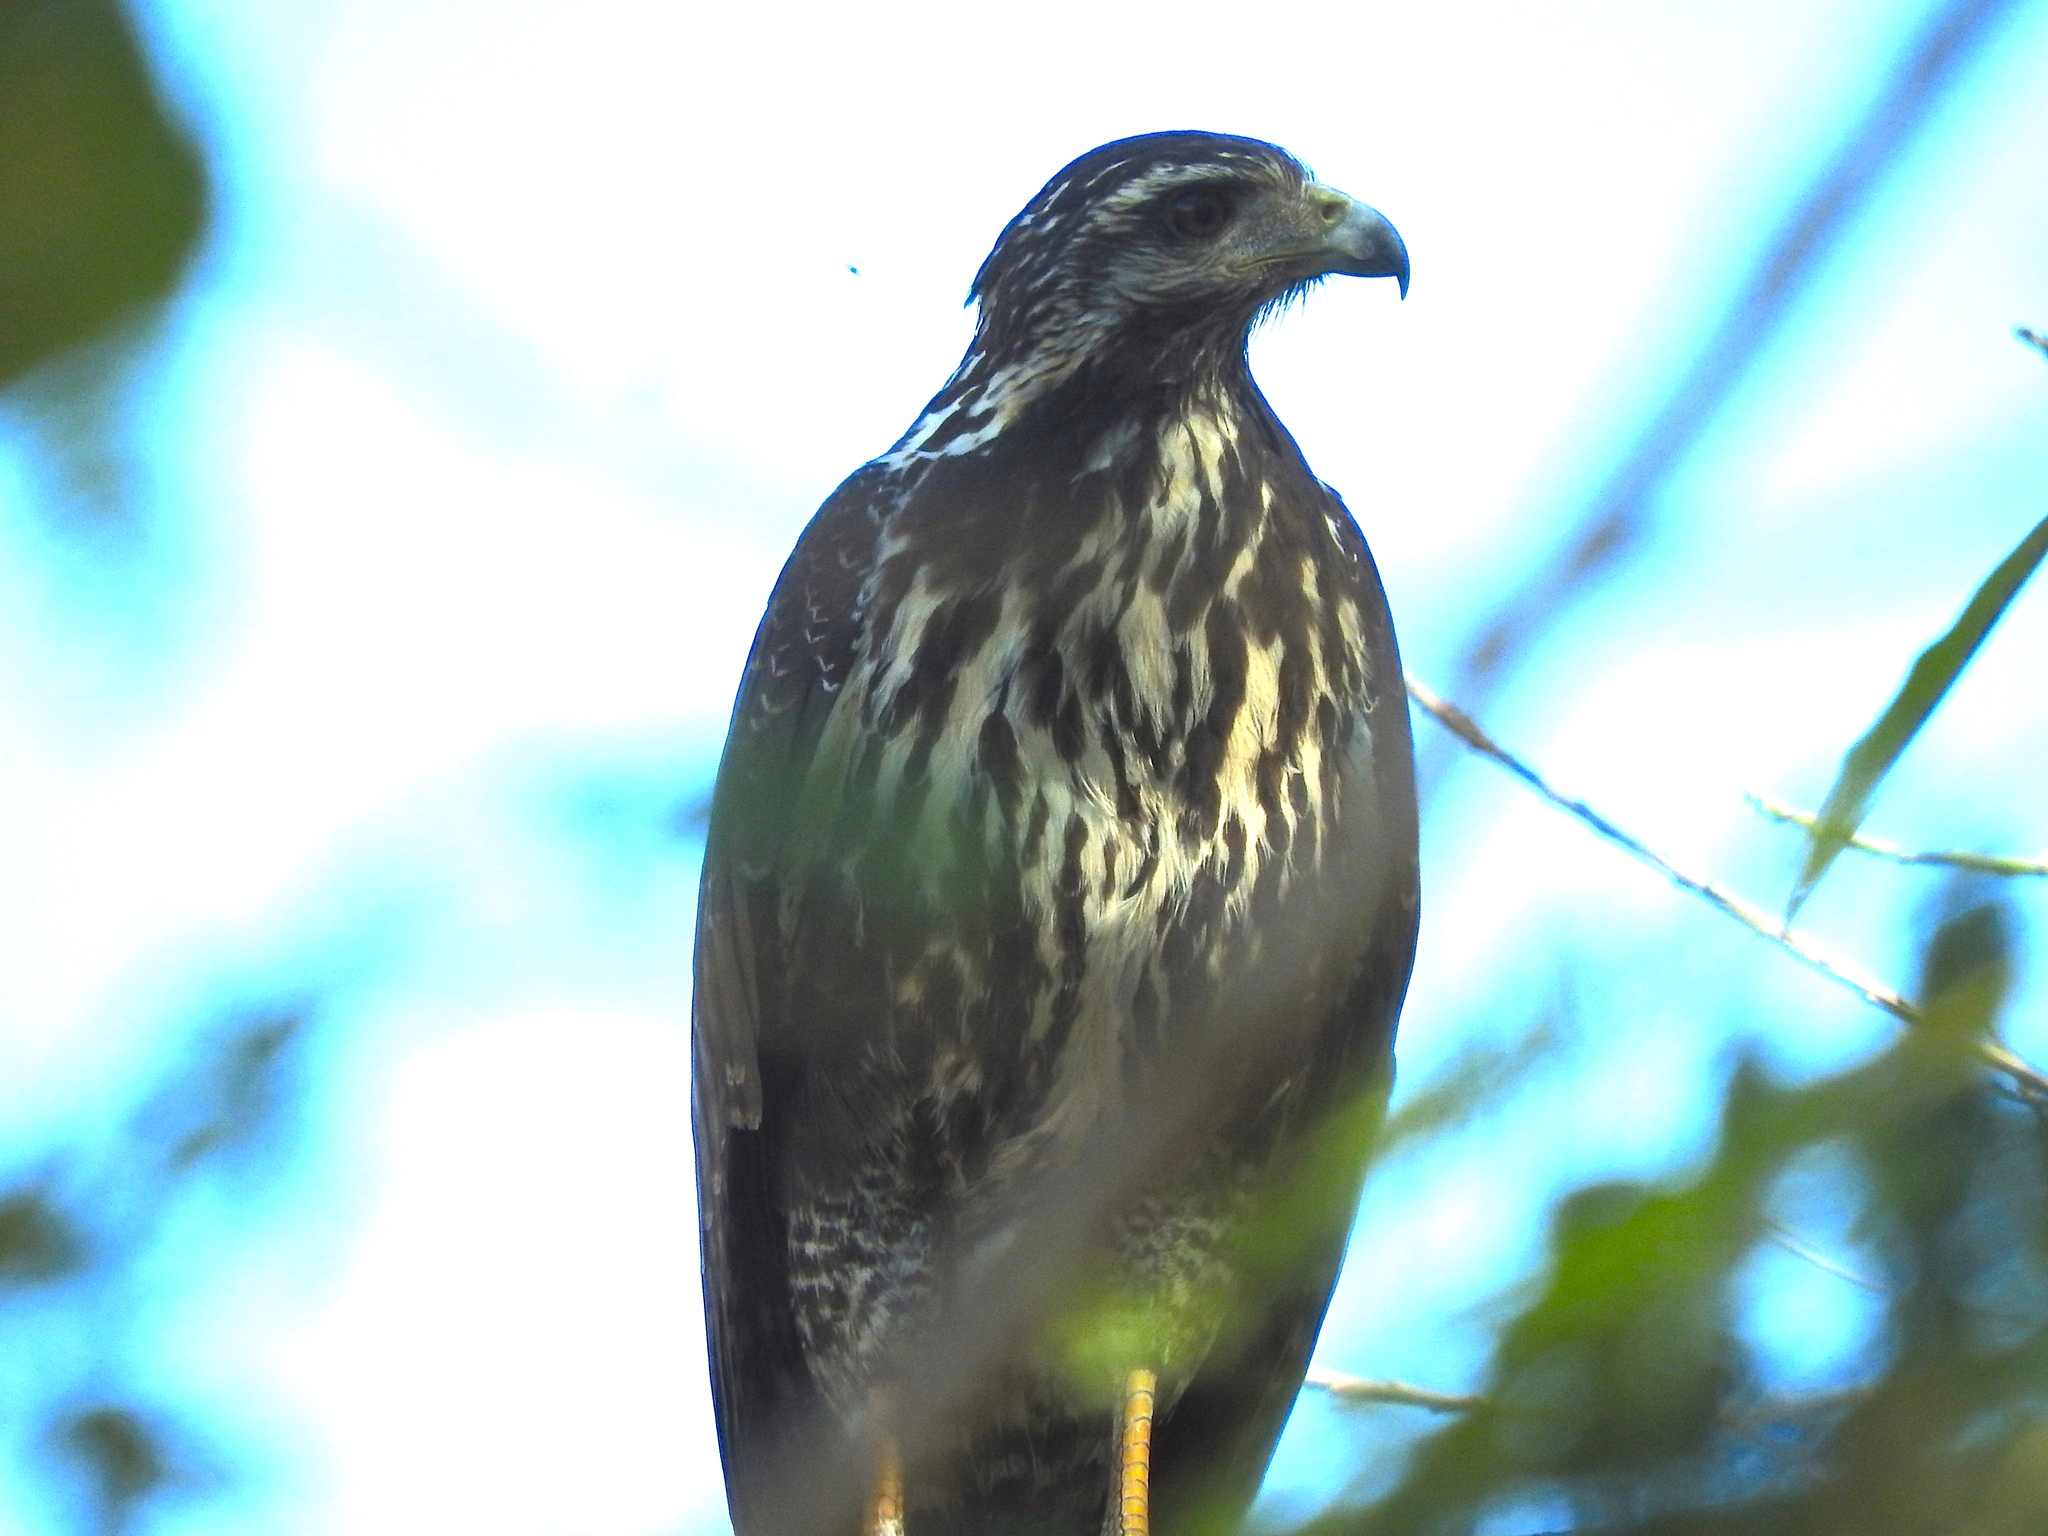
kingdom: Animalia
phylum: Chordata
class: Aves
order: Accipitriformes
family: Accipitridae
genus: Buteogallus
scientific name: Buteogallus anthracinus
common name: Common black hawk
